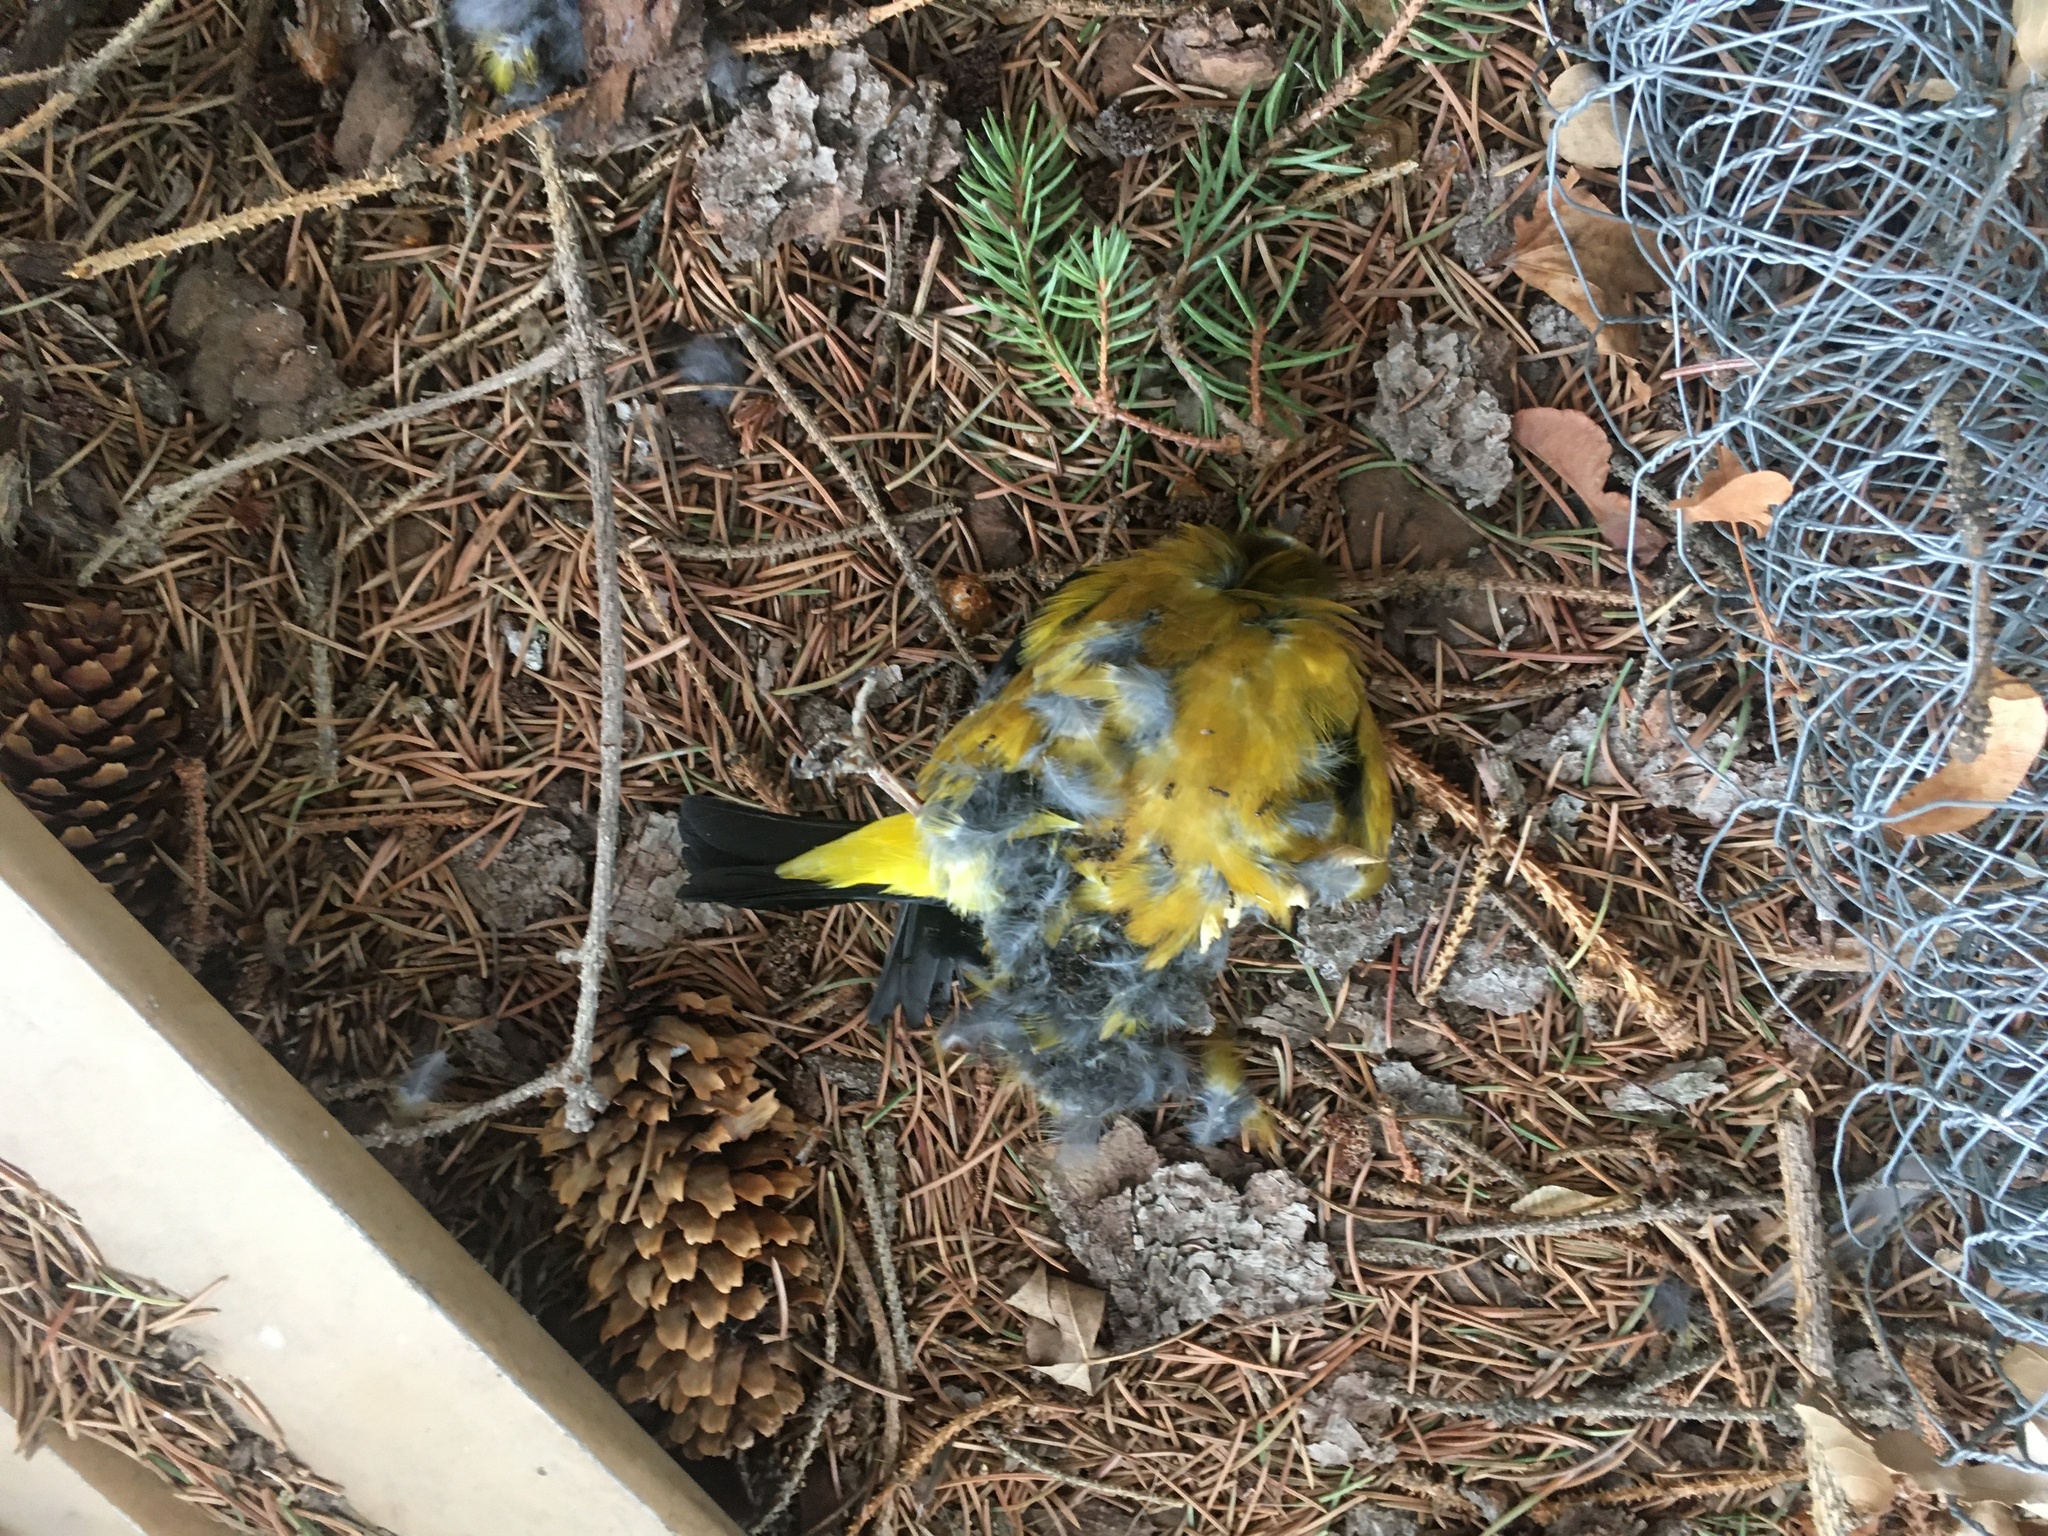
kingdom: Animalia
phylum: Chordata
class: Aves
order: Passeriformes
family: Fringillidae
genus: Hesperiphona
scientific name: Hesperiphona vespertina
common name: Evening grosbeak
